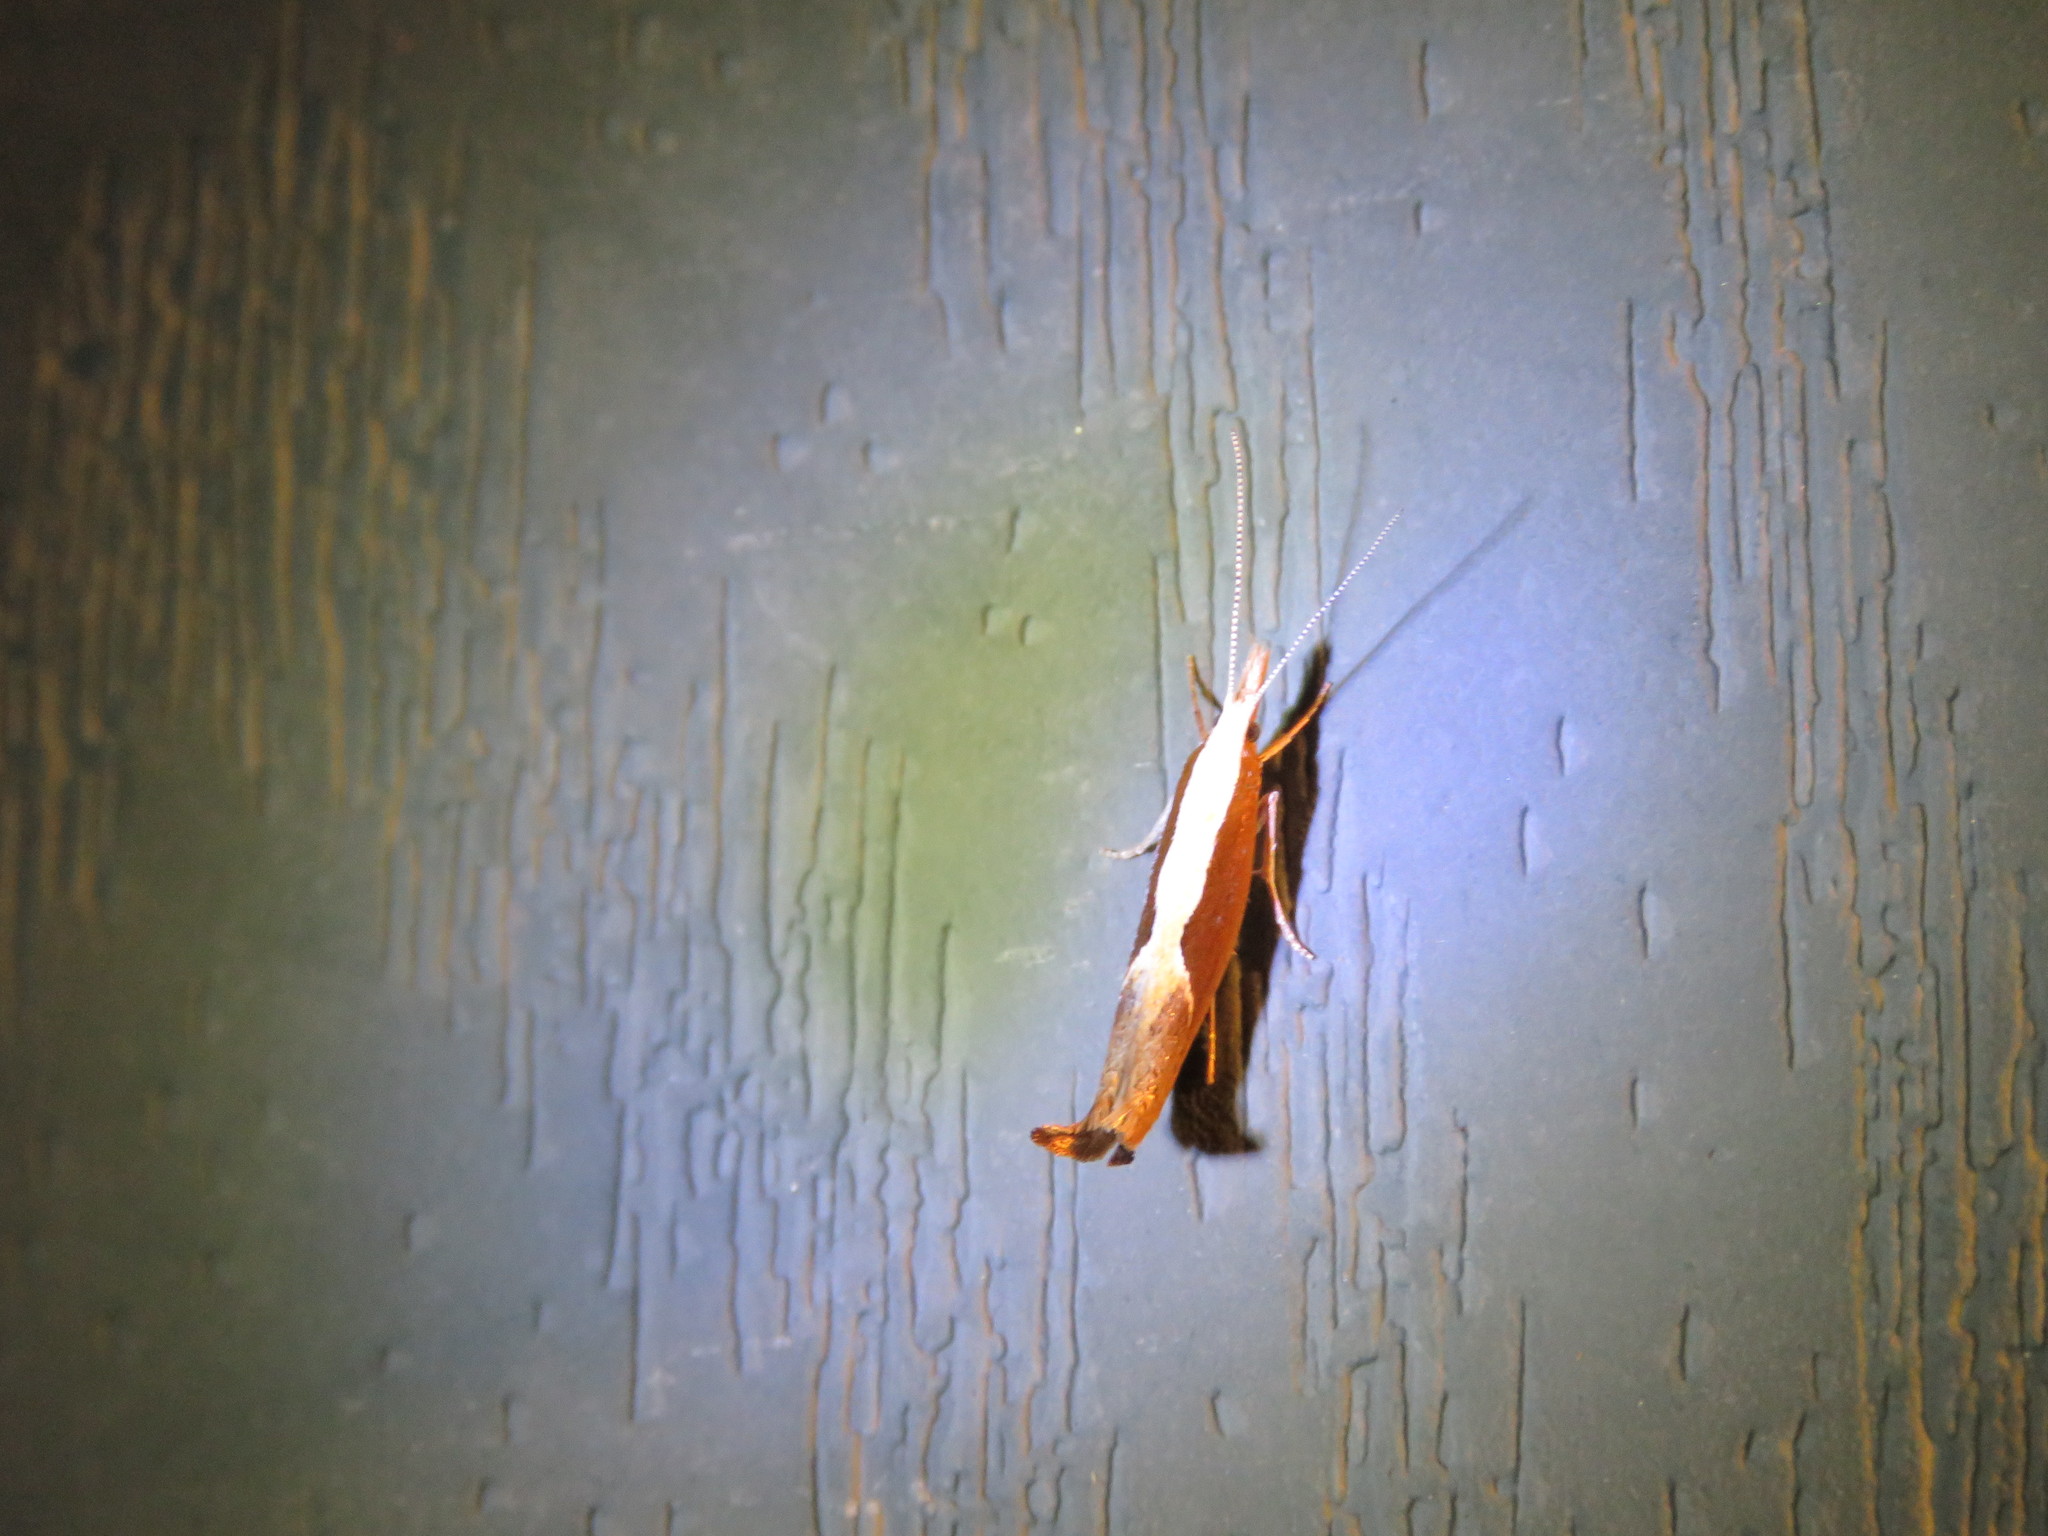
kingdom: Animalia
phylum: Arthropoda
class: Insecta
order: Lepidoptera
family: Ypsolophidae
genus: Ypsolopha
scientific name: Ypsolopha dentella
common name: Honeysuckle moth
